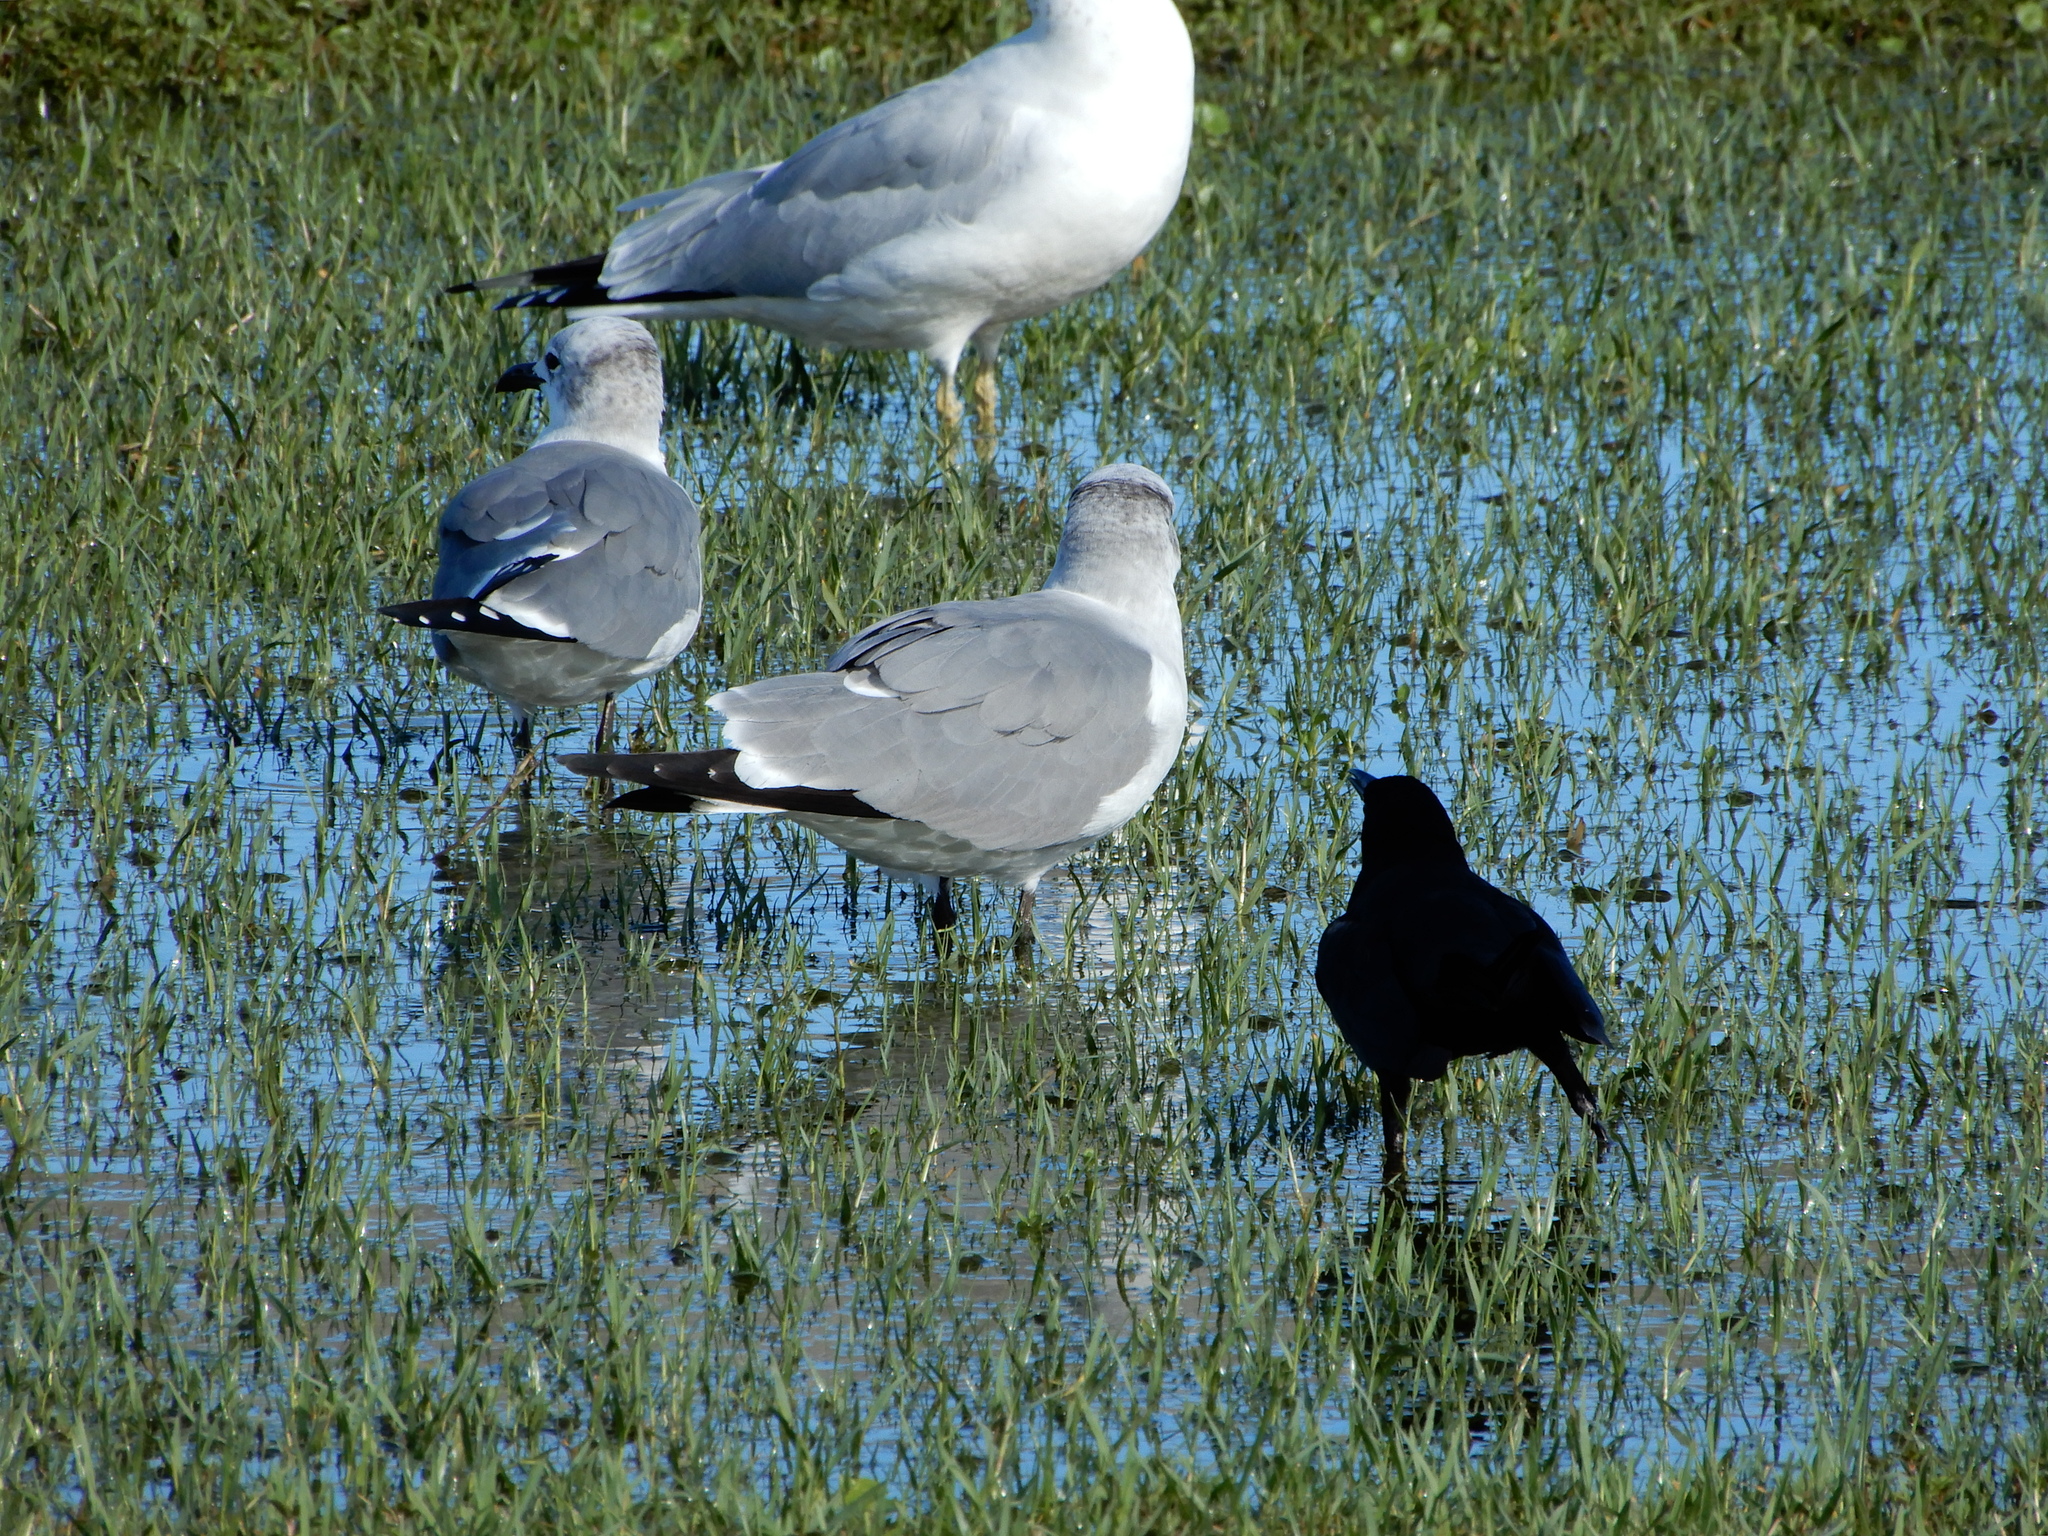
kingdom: Animalia
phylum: Chordata
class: Aves
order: Charadriiformes
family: Laridae
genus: Leucophaeus
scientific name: Leucophaeus atricilla
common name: Laughing gull
